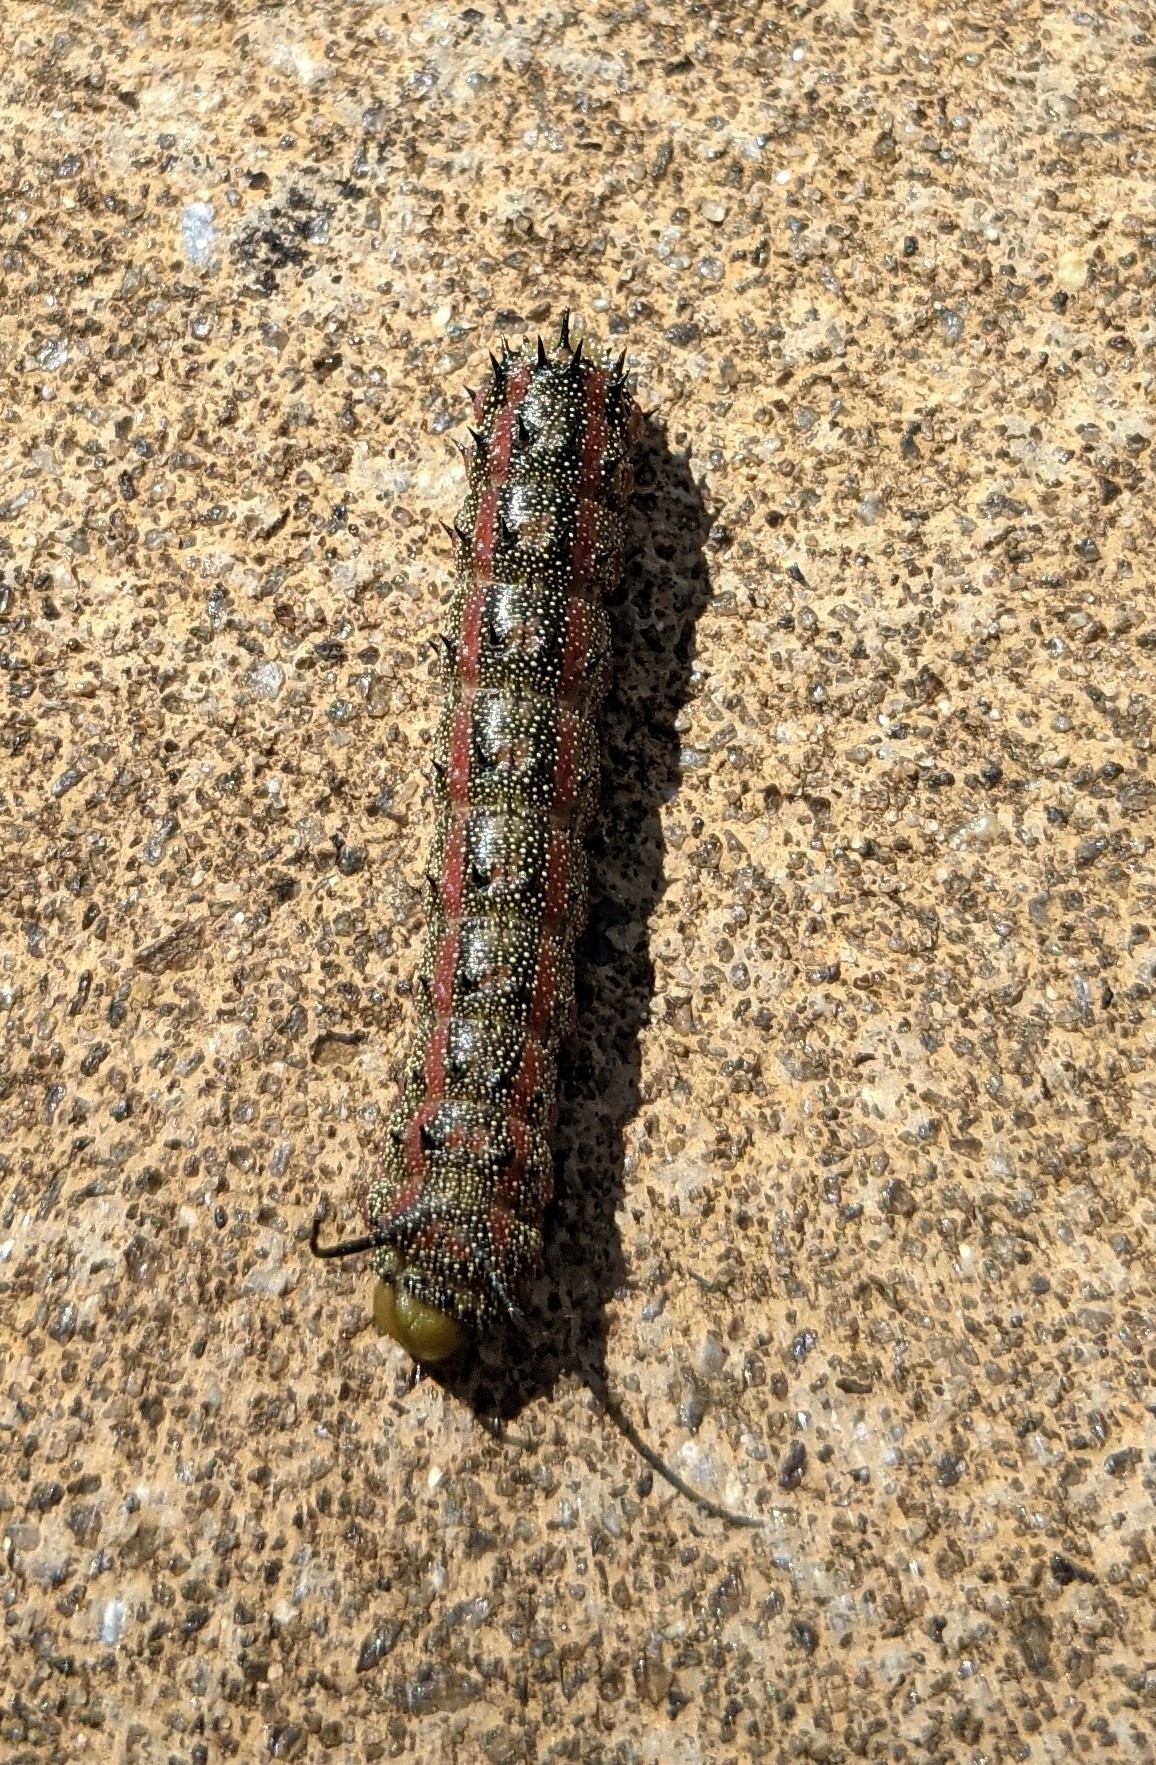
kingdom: Animalia
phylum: Arthropoda
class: Insecta
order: Lepidoptera
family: Saturniidae
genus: Anisota
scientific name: Anisota virginiensis
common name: Pink striped oakworm moth
